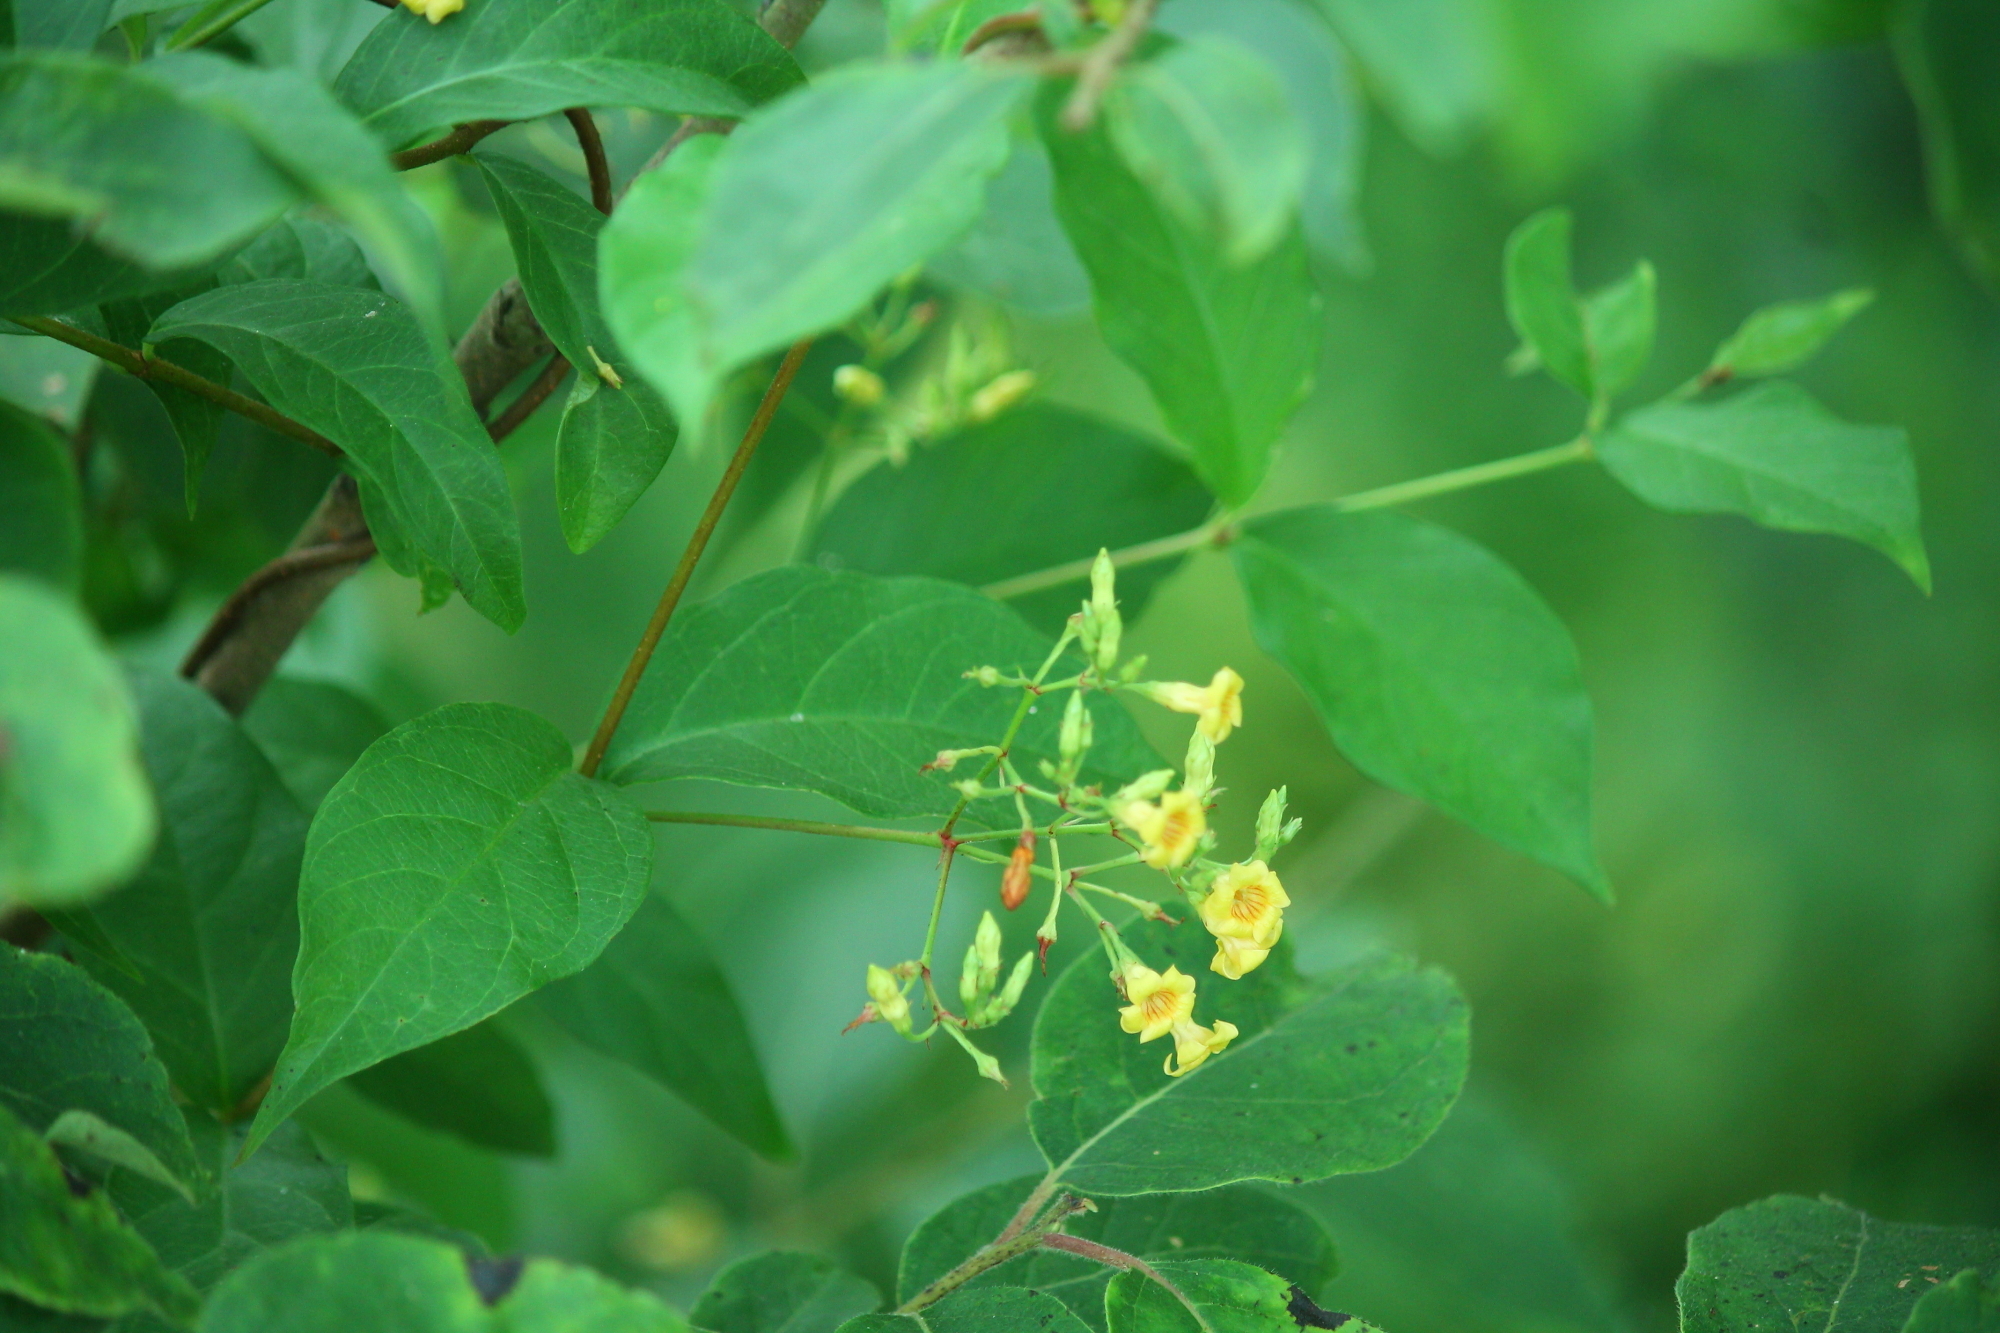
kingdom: Plantae
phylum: Tracheophyta
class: Magnoliopsida
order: Gentianales
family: Apocynaceae
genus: Thyrsanthella
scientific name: Thyrsanthella difformis
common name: Climbing dogbane
